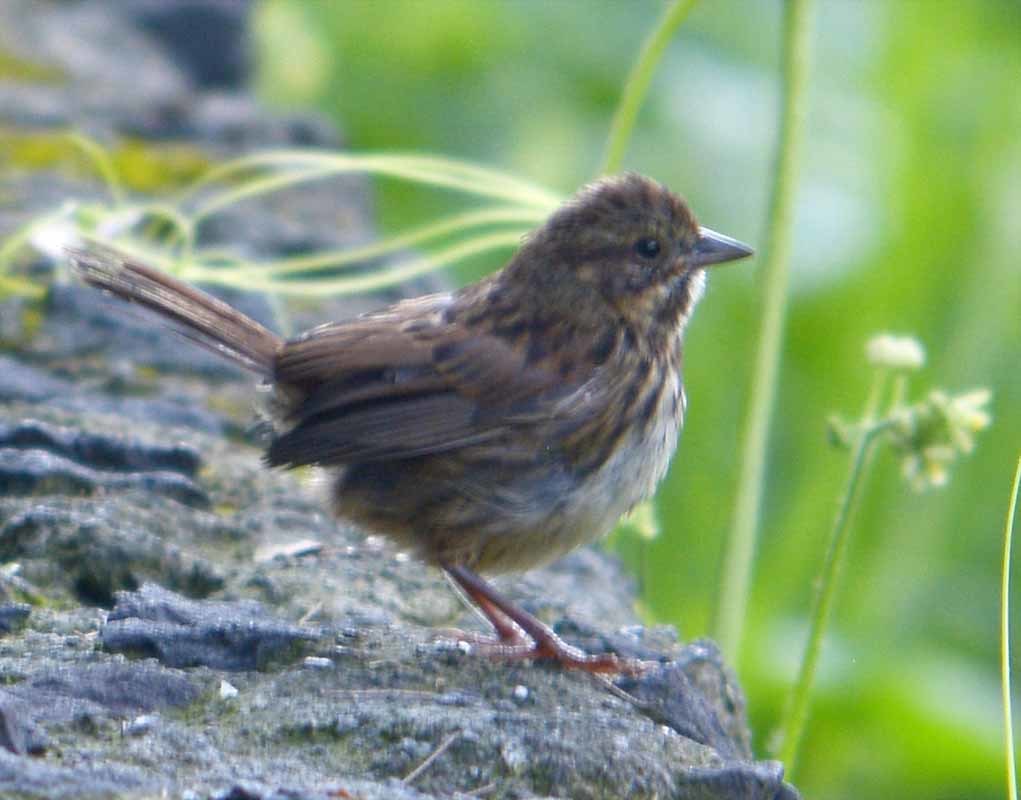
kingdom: Animalia
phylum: Chordata
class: Aves
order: Passeriformes
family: Passerellidae
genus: Melospiza
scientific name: Melospiza melodia
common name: Song sparrow
